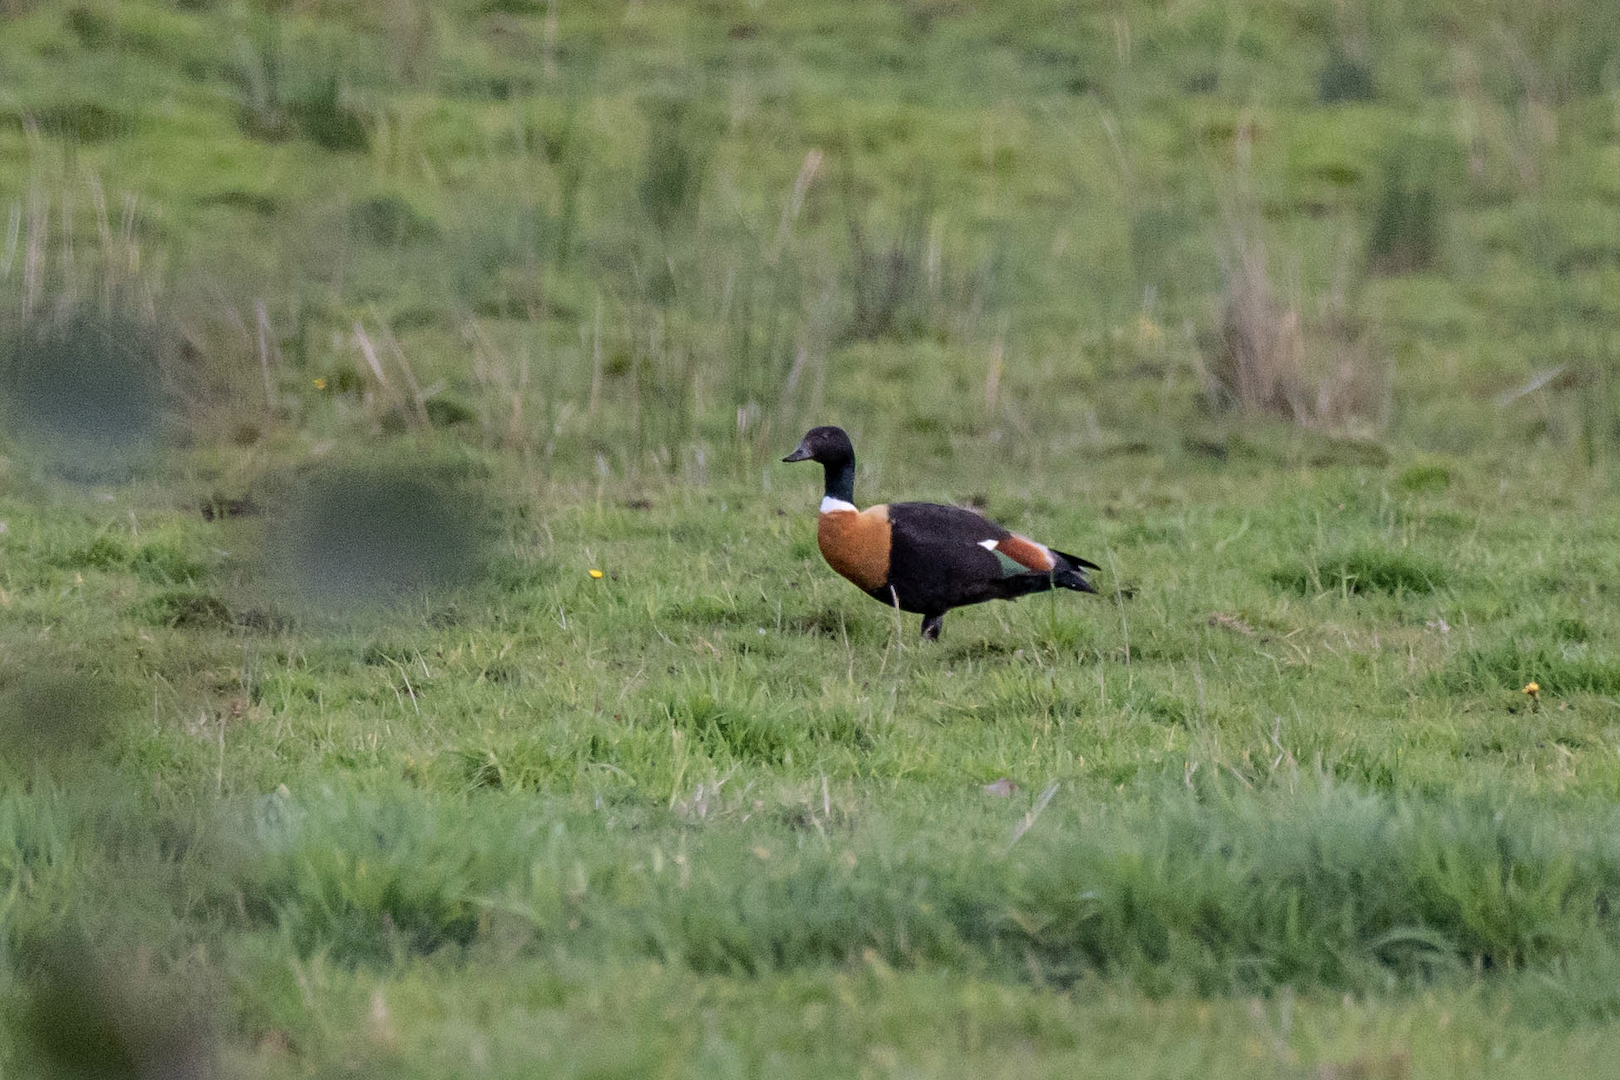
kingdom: Animalia
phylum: Chordata
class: Aves
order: Anseriformes
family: Anatidae
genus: Tadorna
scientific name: Tadorna tadornoides
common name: Australian shelduck
